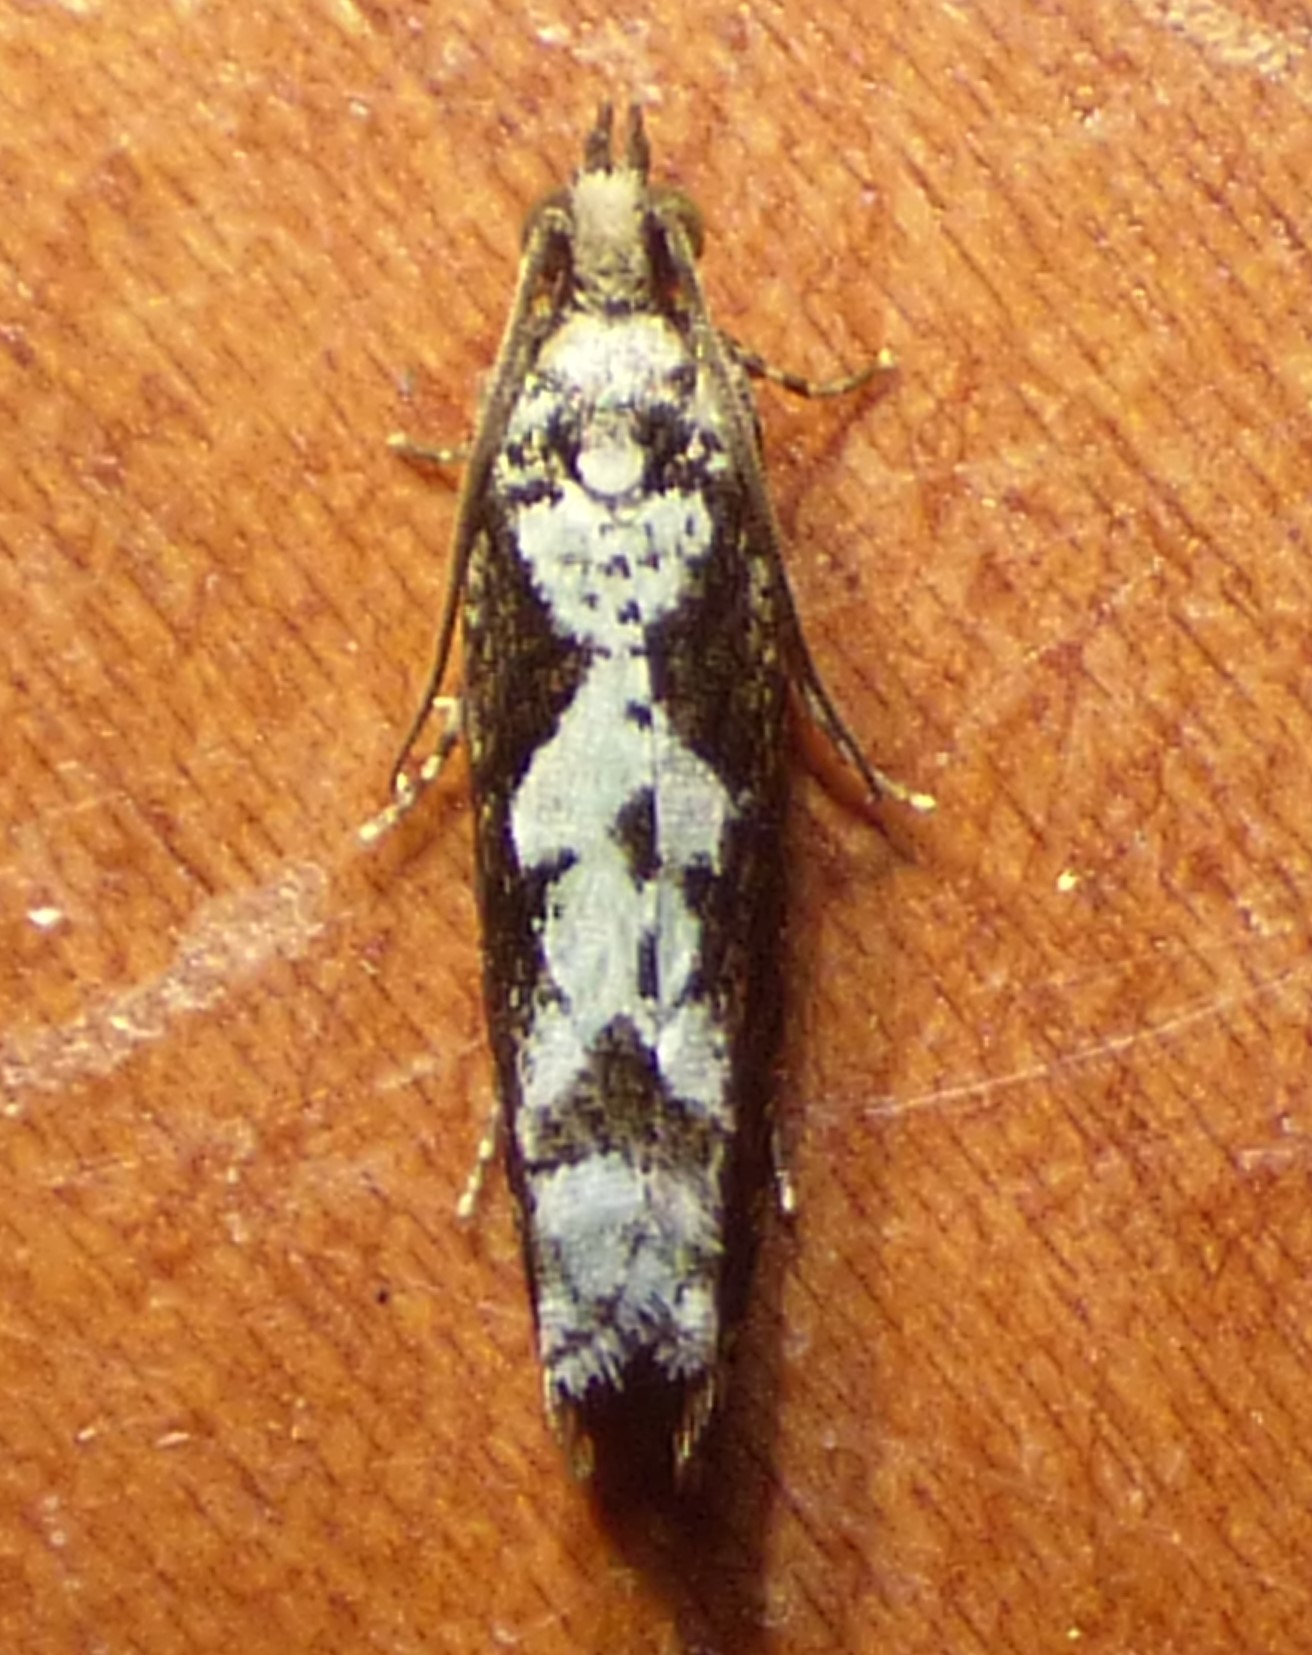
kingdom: Animalia
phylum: Arthropoda
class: Insecta
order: Lepidoptera
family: Tortricidae
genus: Chimoptesis
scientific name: Chimoptesis pennsylvaniana
